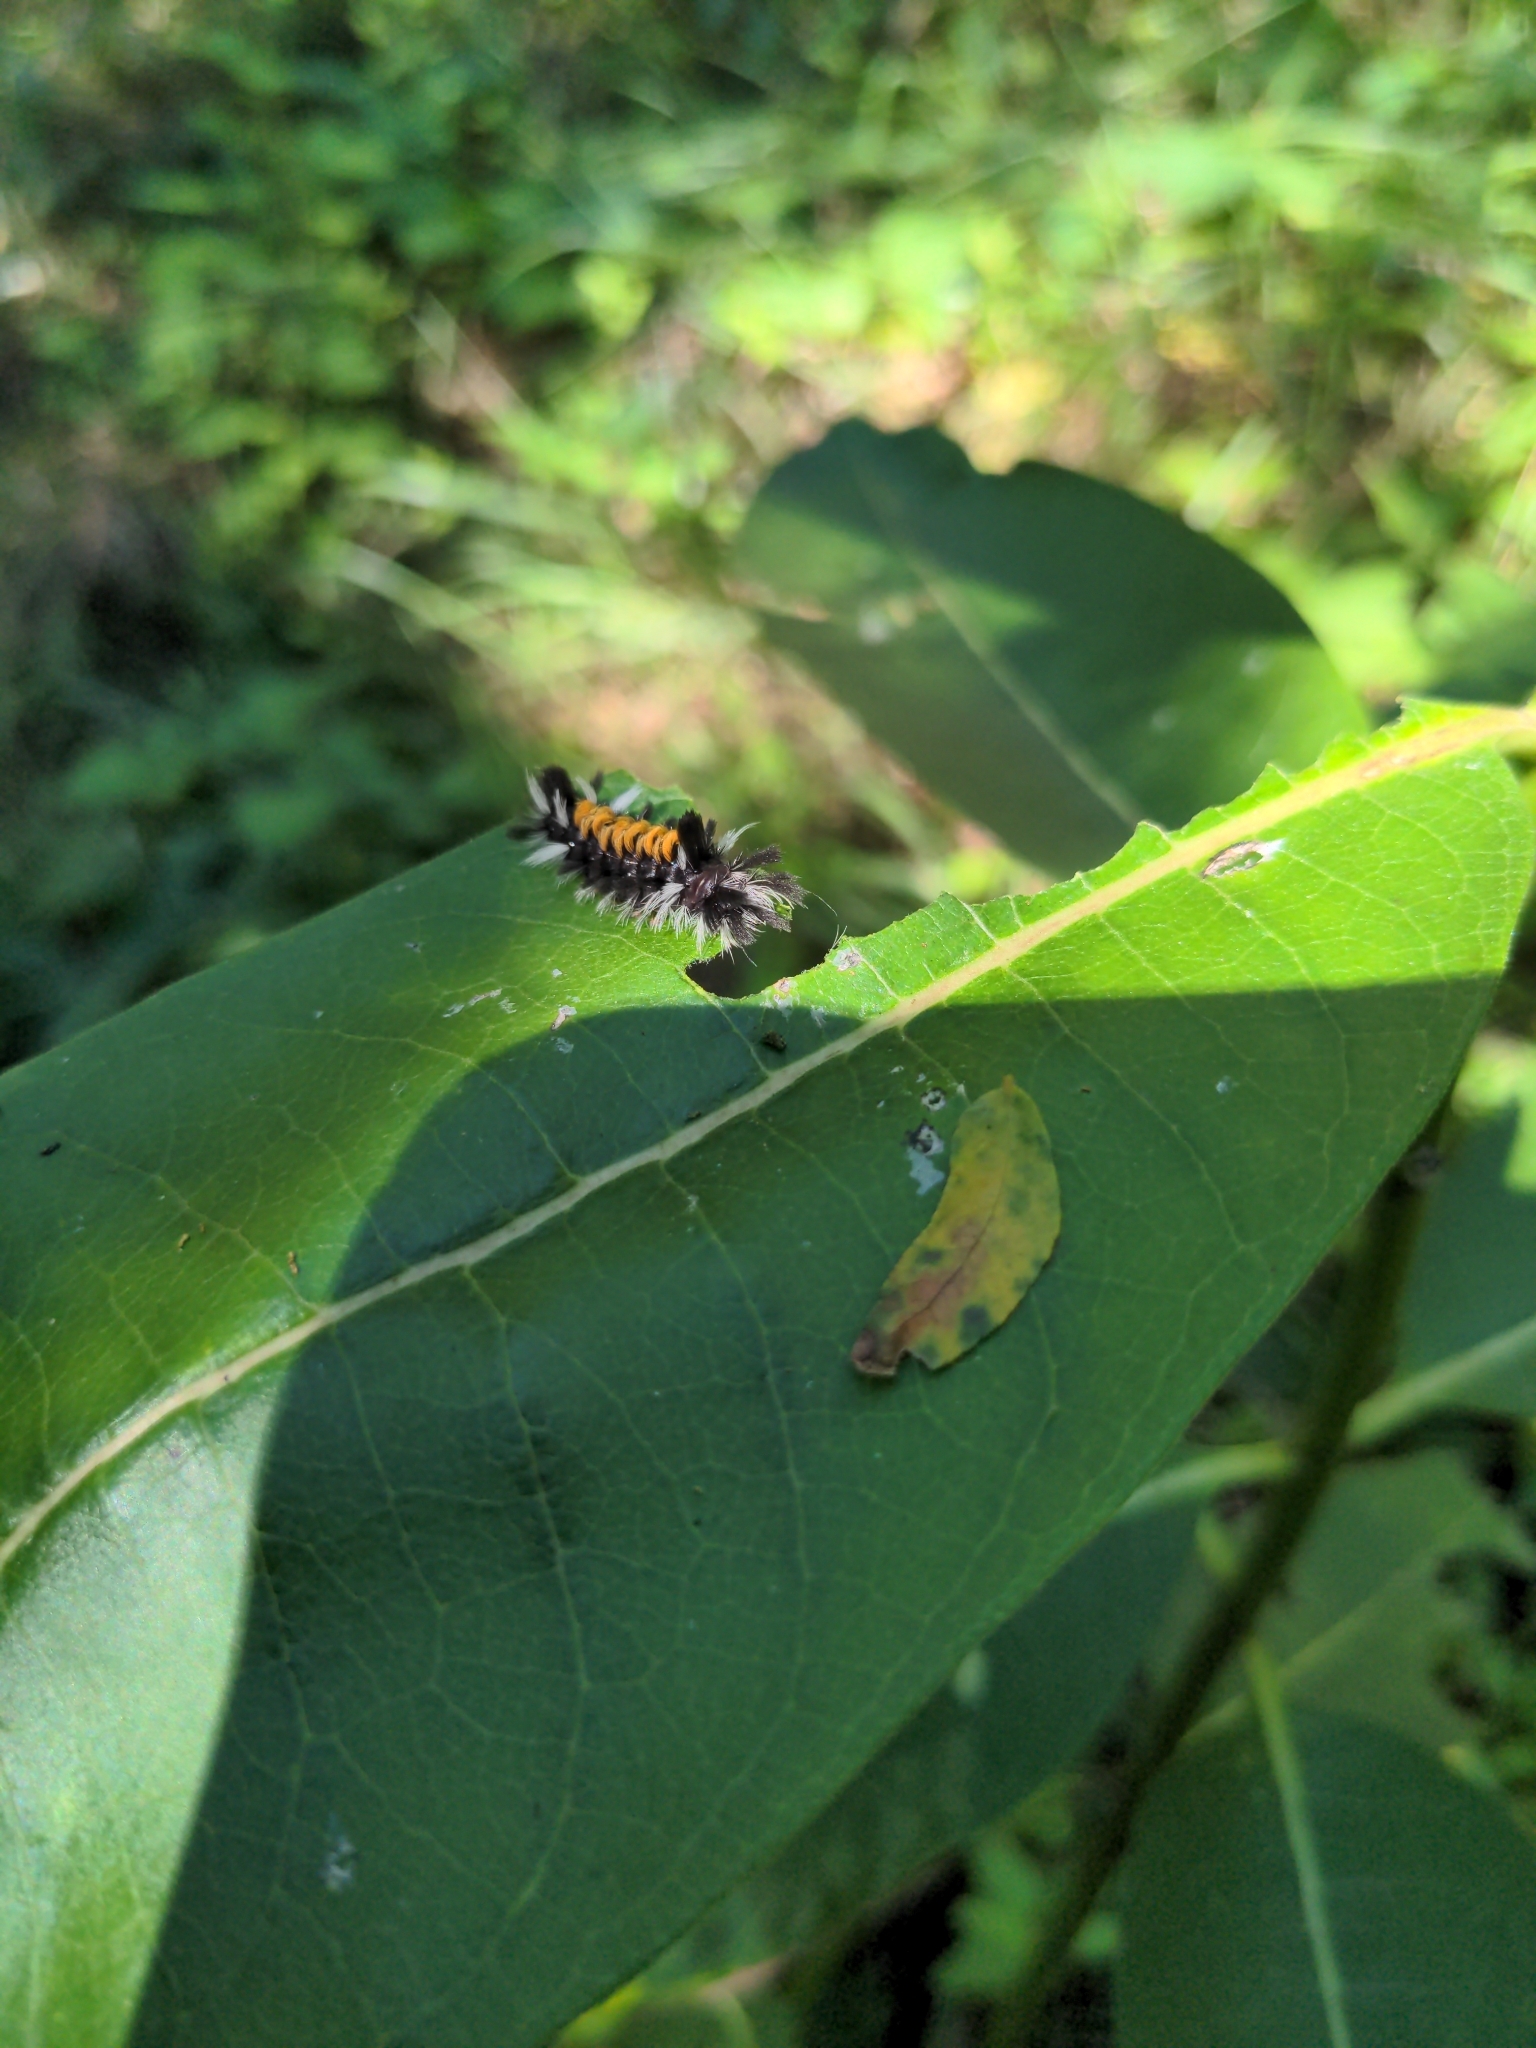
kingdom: Animalia
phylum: Arthropoda
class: Insecta
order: Lepidoptera
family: Erebidae
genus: Euchaetes
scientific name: Euchaetes egle
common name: Milkweed tussock moth
